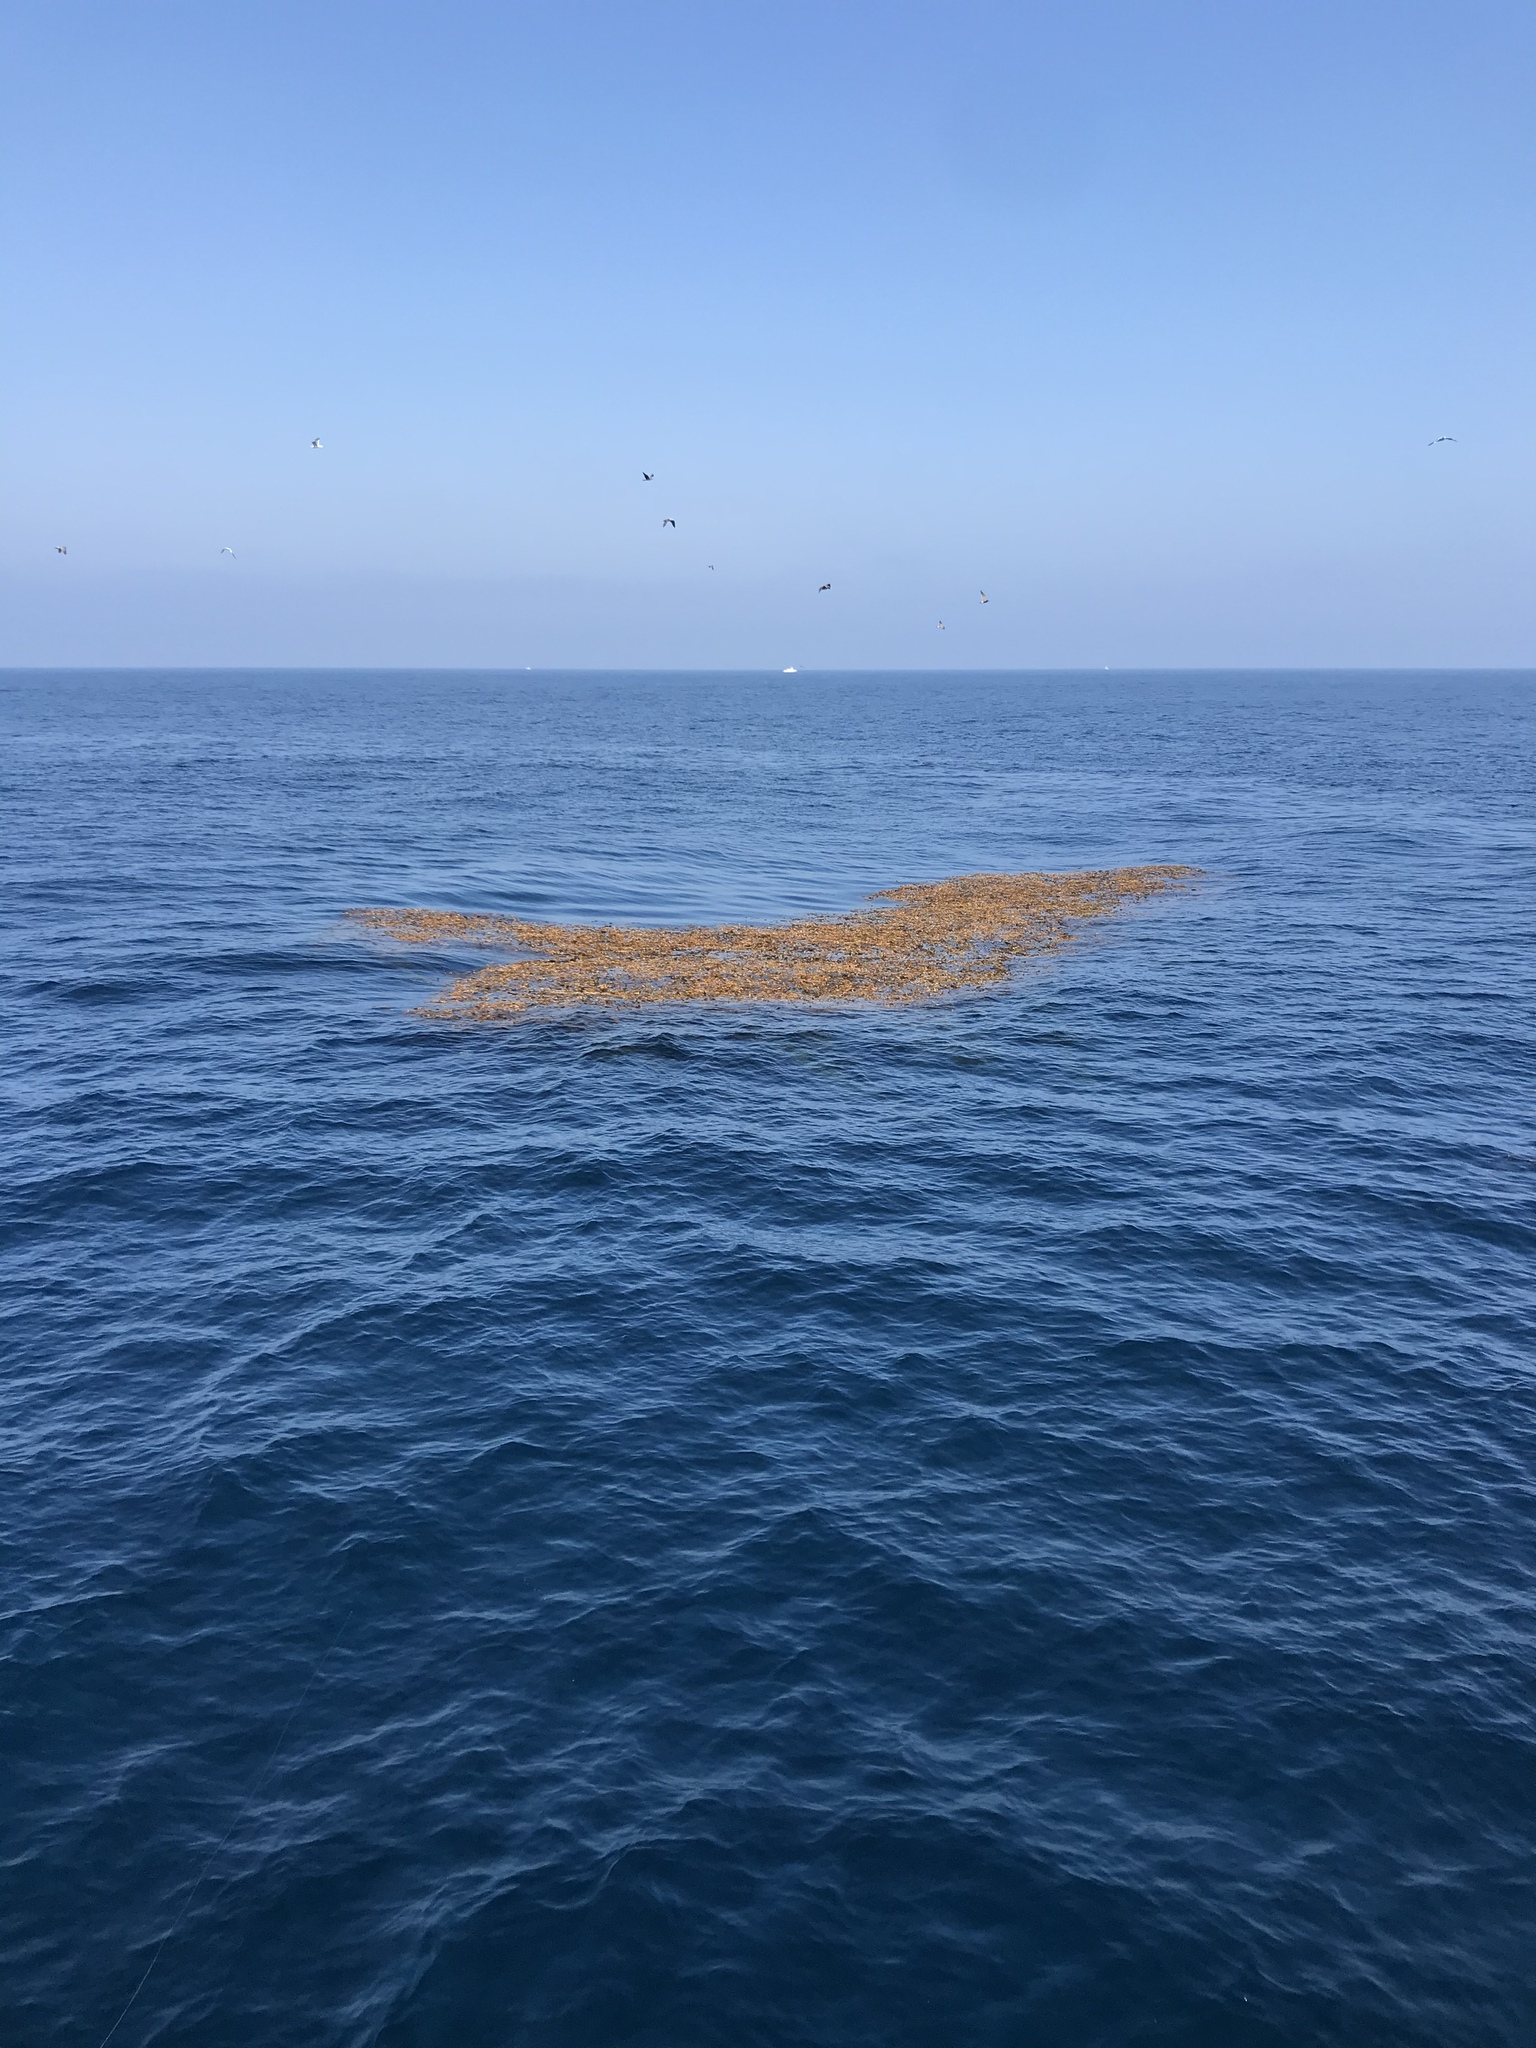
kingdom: Chromista
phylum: Ochrophyta
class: Phaeophyceae
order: Laminariales
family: Laminariaceae
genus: Macrocystis
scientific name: Macrocystis pyrifera
